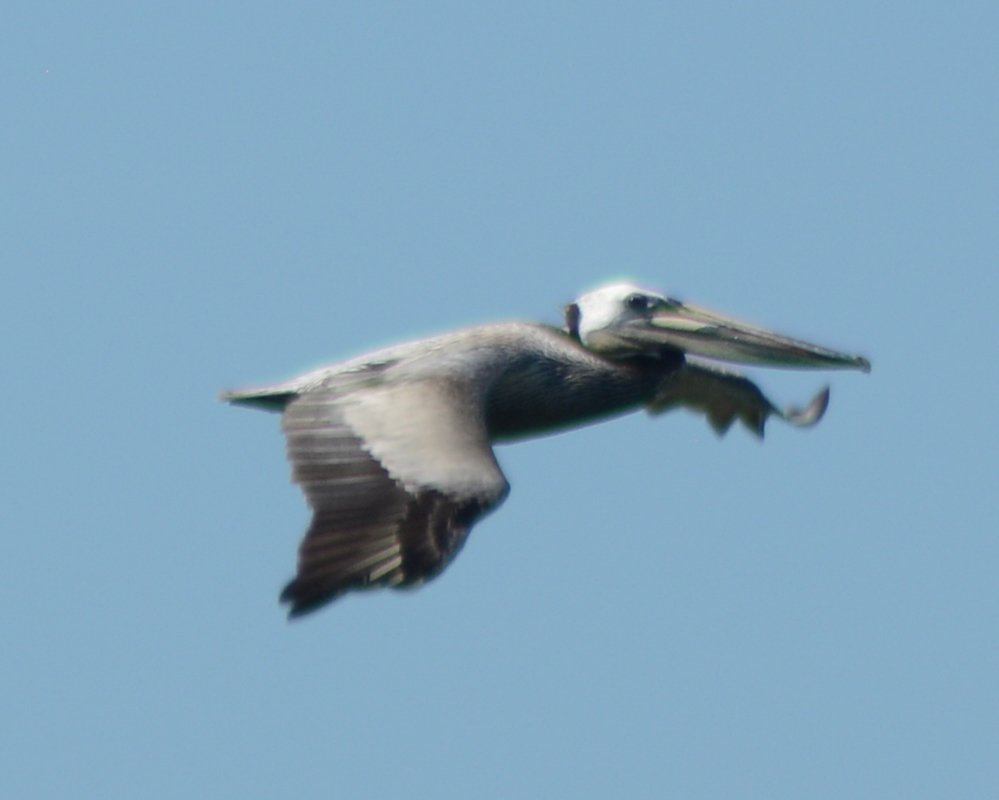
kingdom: Animalia
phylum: Chordata
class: Aves
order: Pelecaniformes
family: Pelecanidae
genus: Pelecanus
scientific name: Pelecanus occidentalis
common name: Brown pelican
